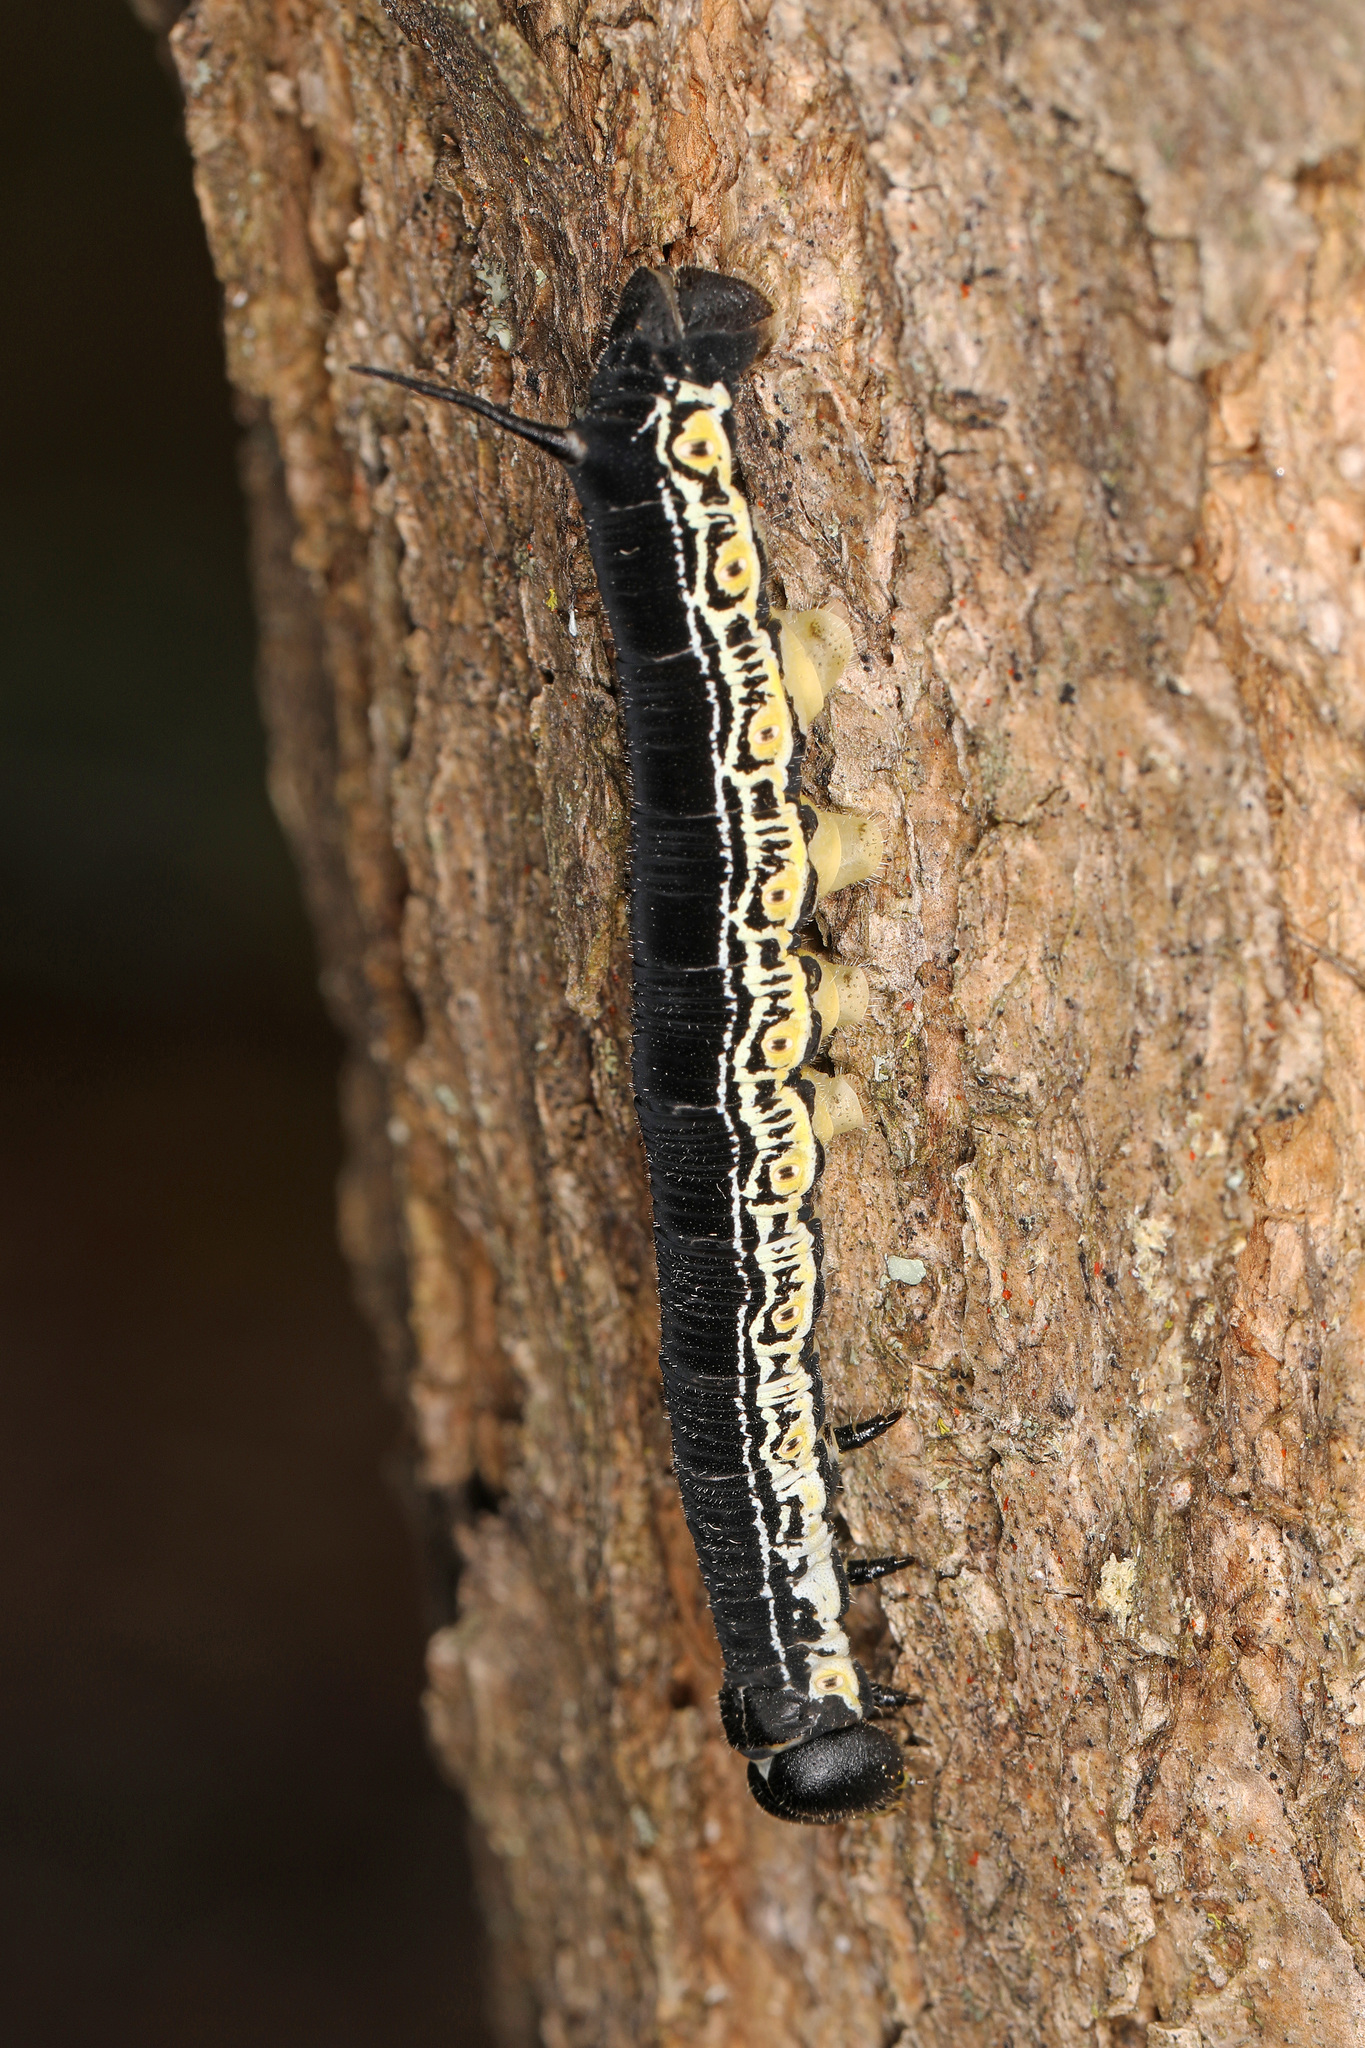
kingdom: Animalia
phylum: Arthropoda
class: Insecta
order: Lepidoptera
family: Sphingidae
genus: Ceratomia
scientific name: Ceratomia catalpae
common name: Catalpa hornworm
